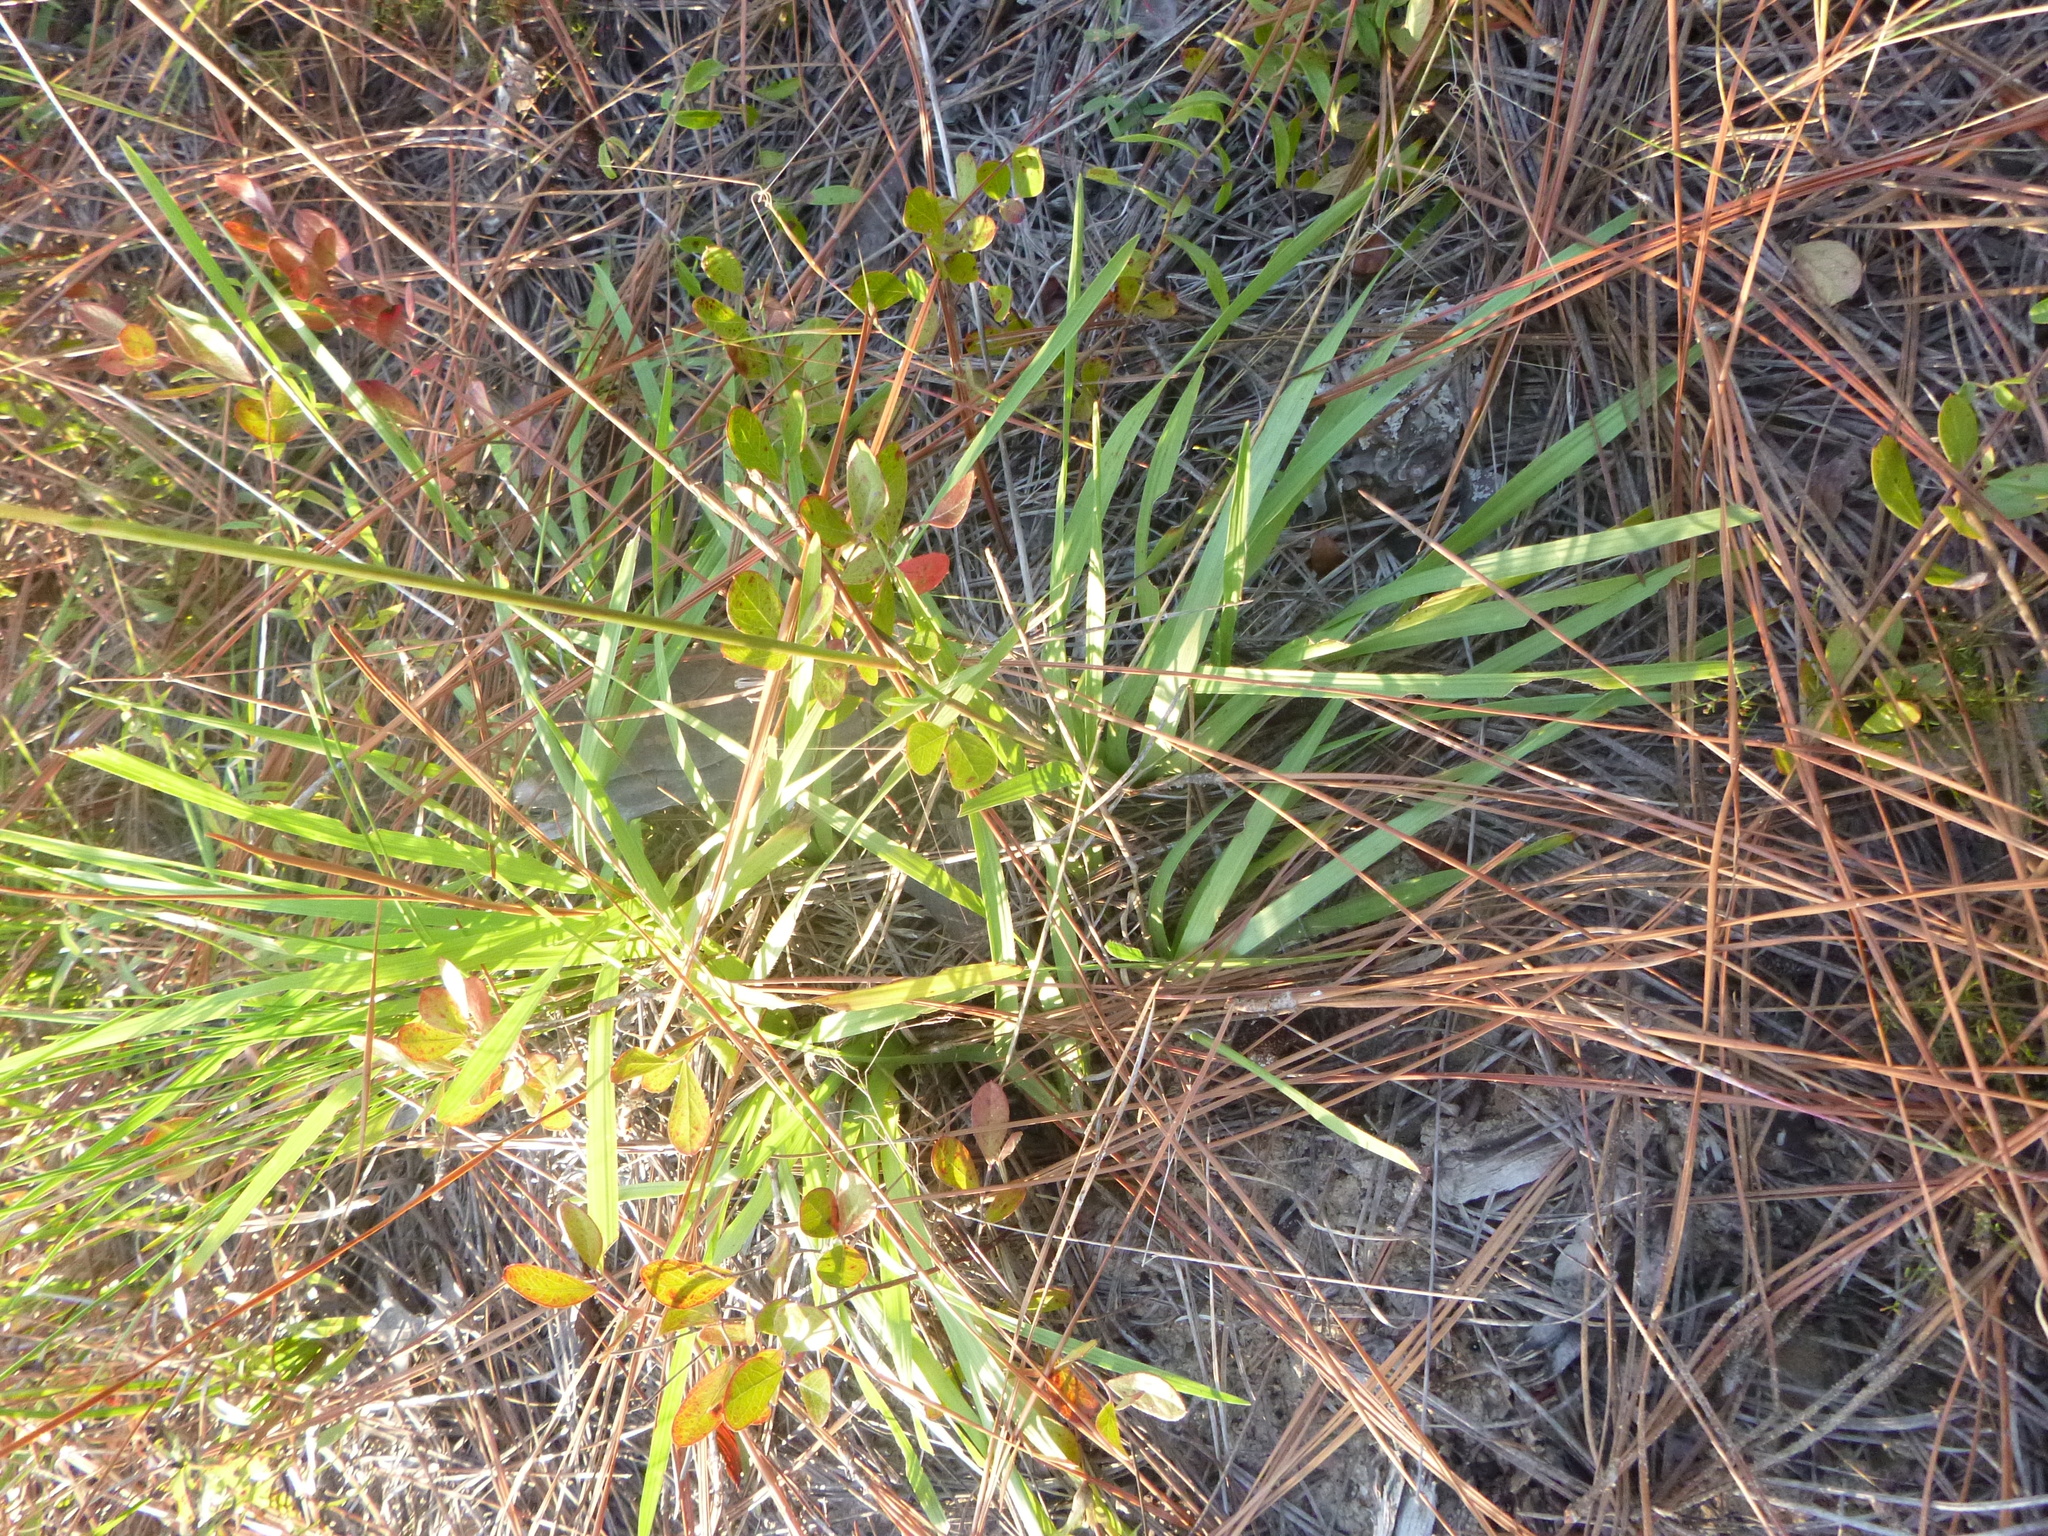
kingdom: Plantae
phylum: Tracheophyta
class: Liliopsida
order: Poales
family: Poaceae
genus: Anthenantia
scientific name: Anthenantia villosa
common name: Green silkyscale
